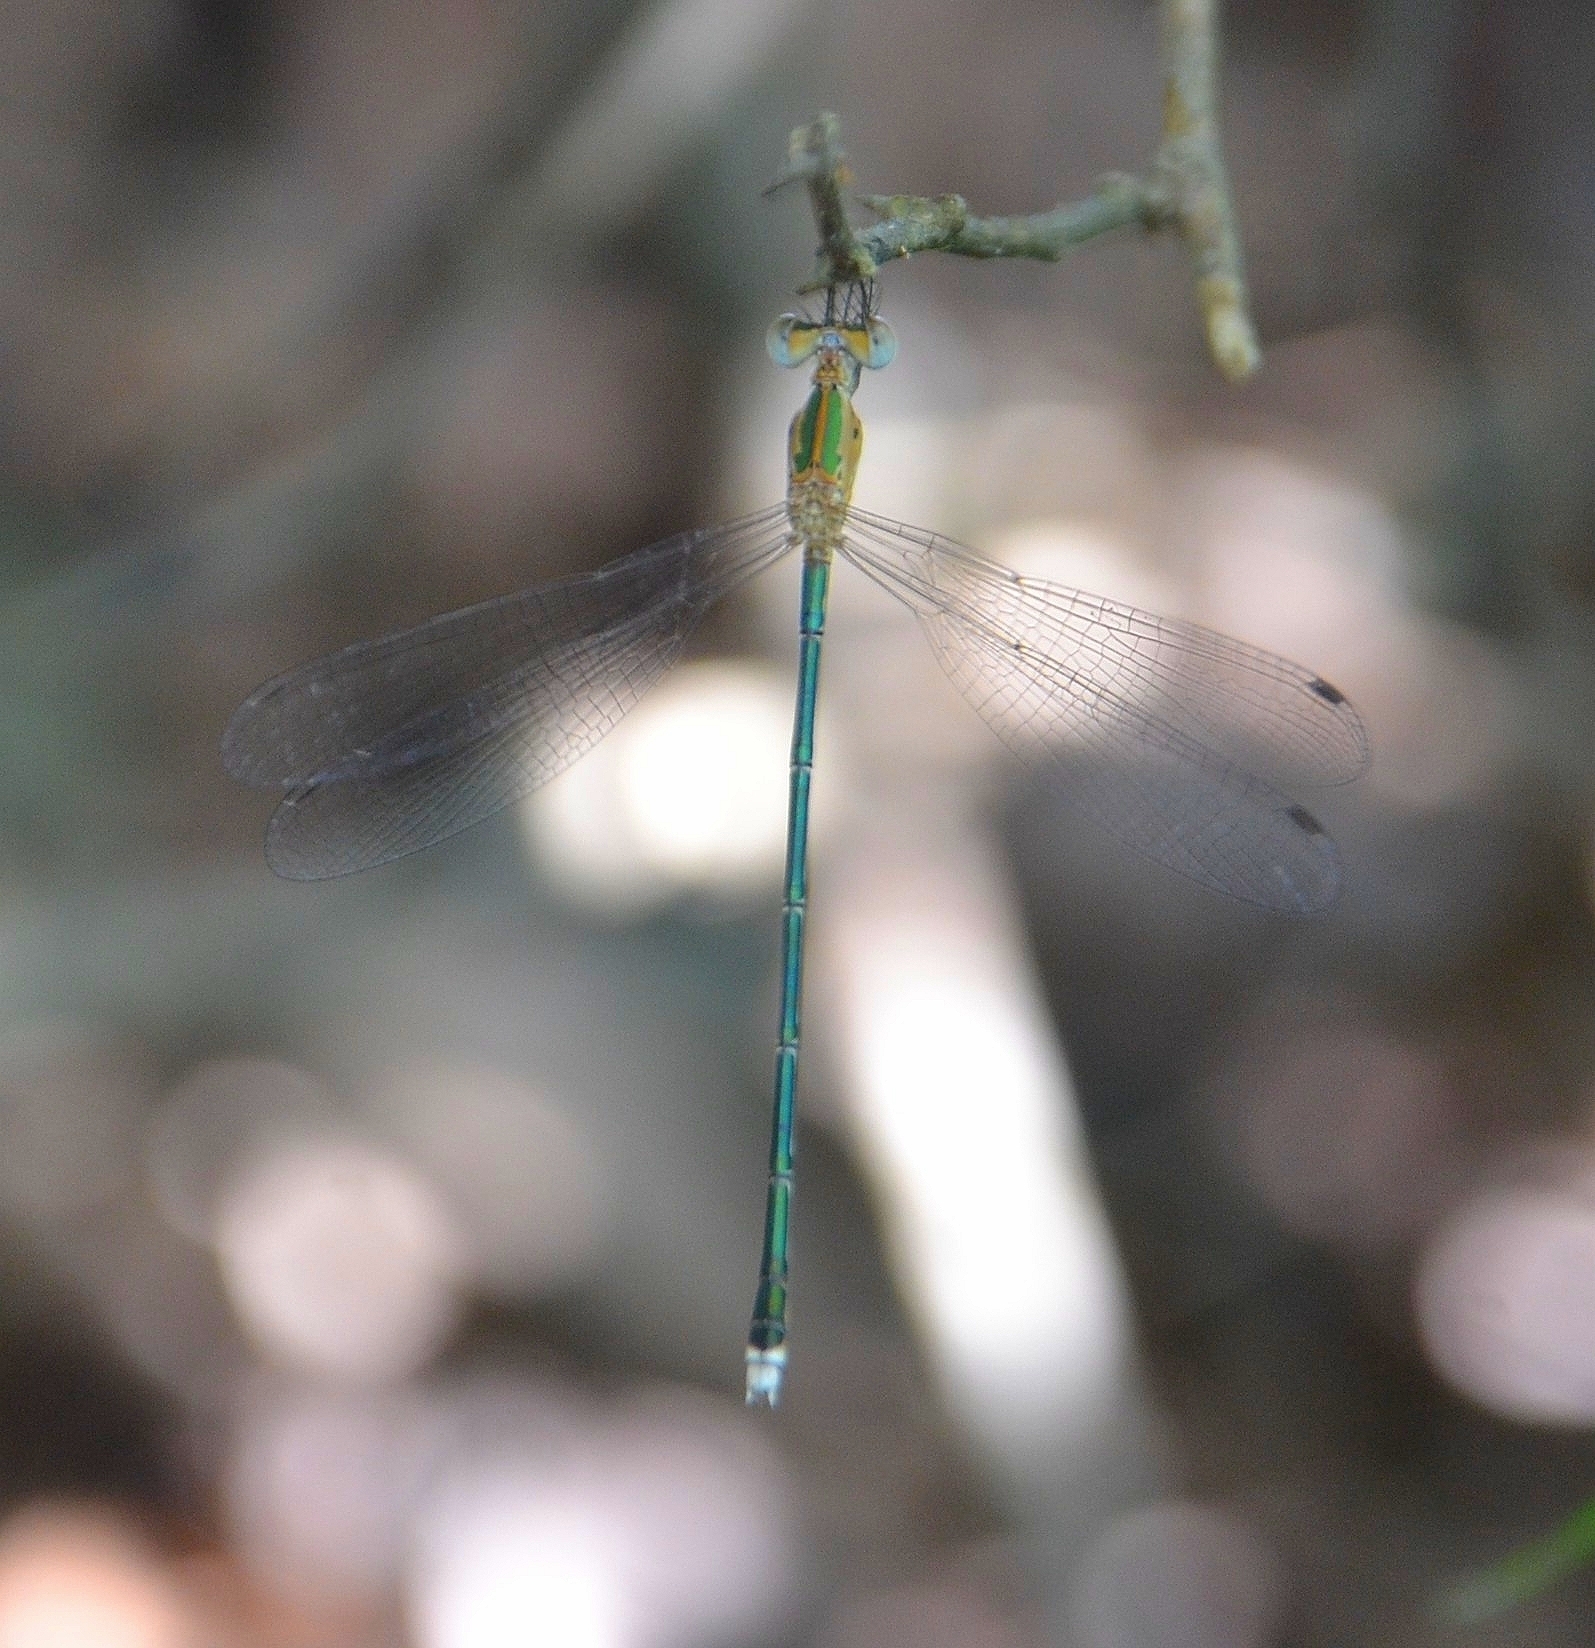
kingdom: Animalia
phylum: Arthropoda
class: Insecta
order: Odonata
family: Lestidae
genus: Lestes
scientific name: Lestes elatus
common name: Emerald spreadwing
